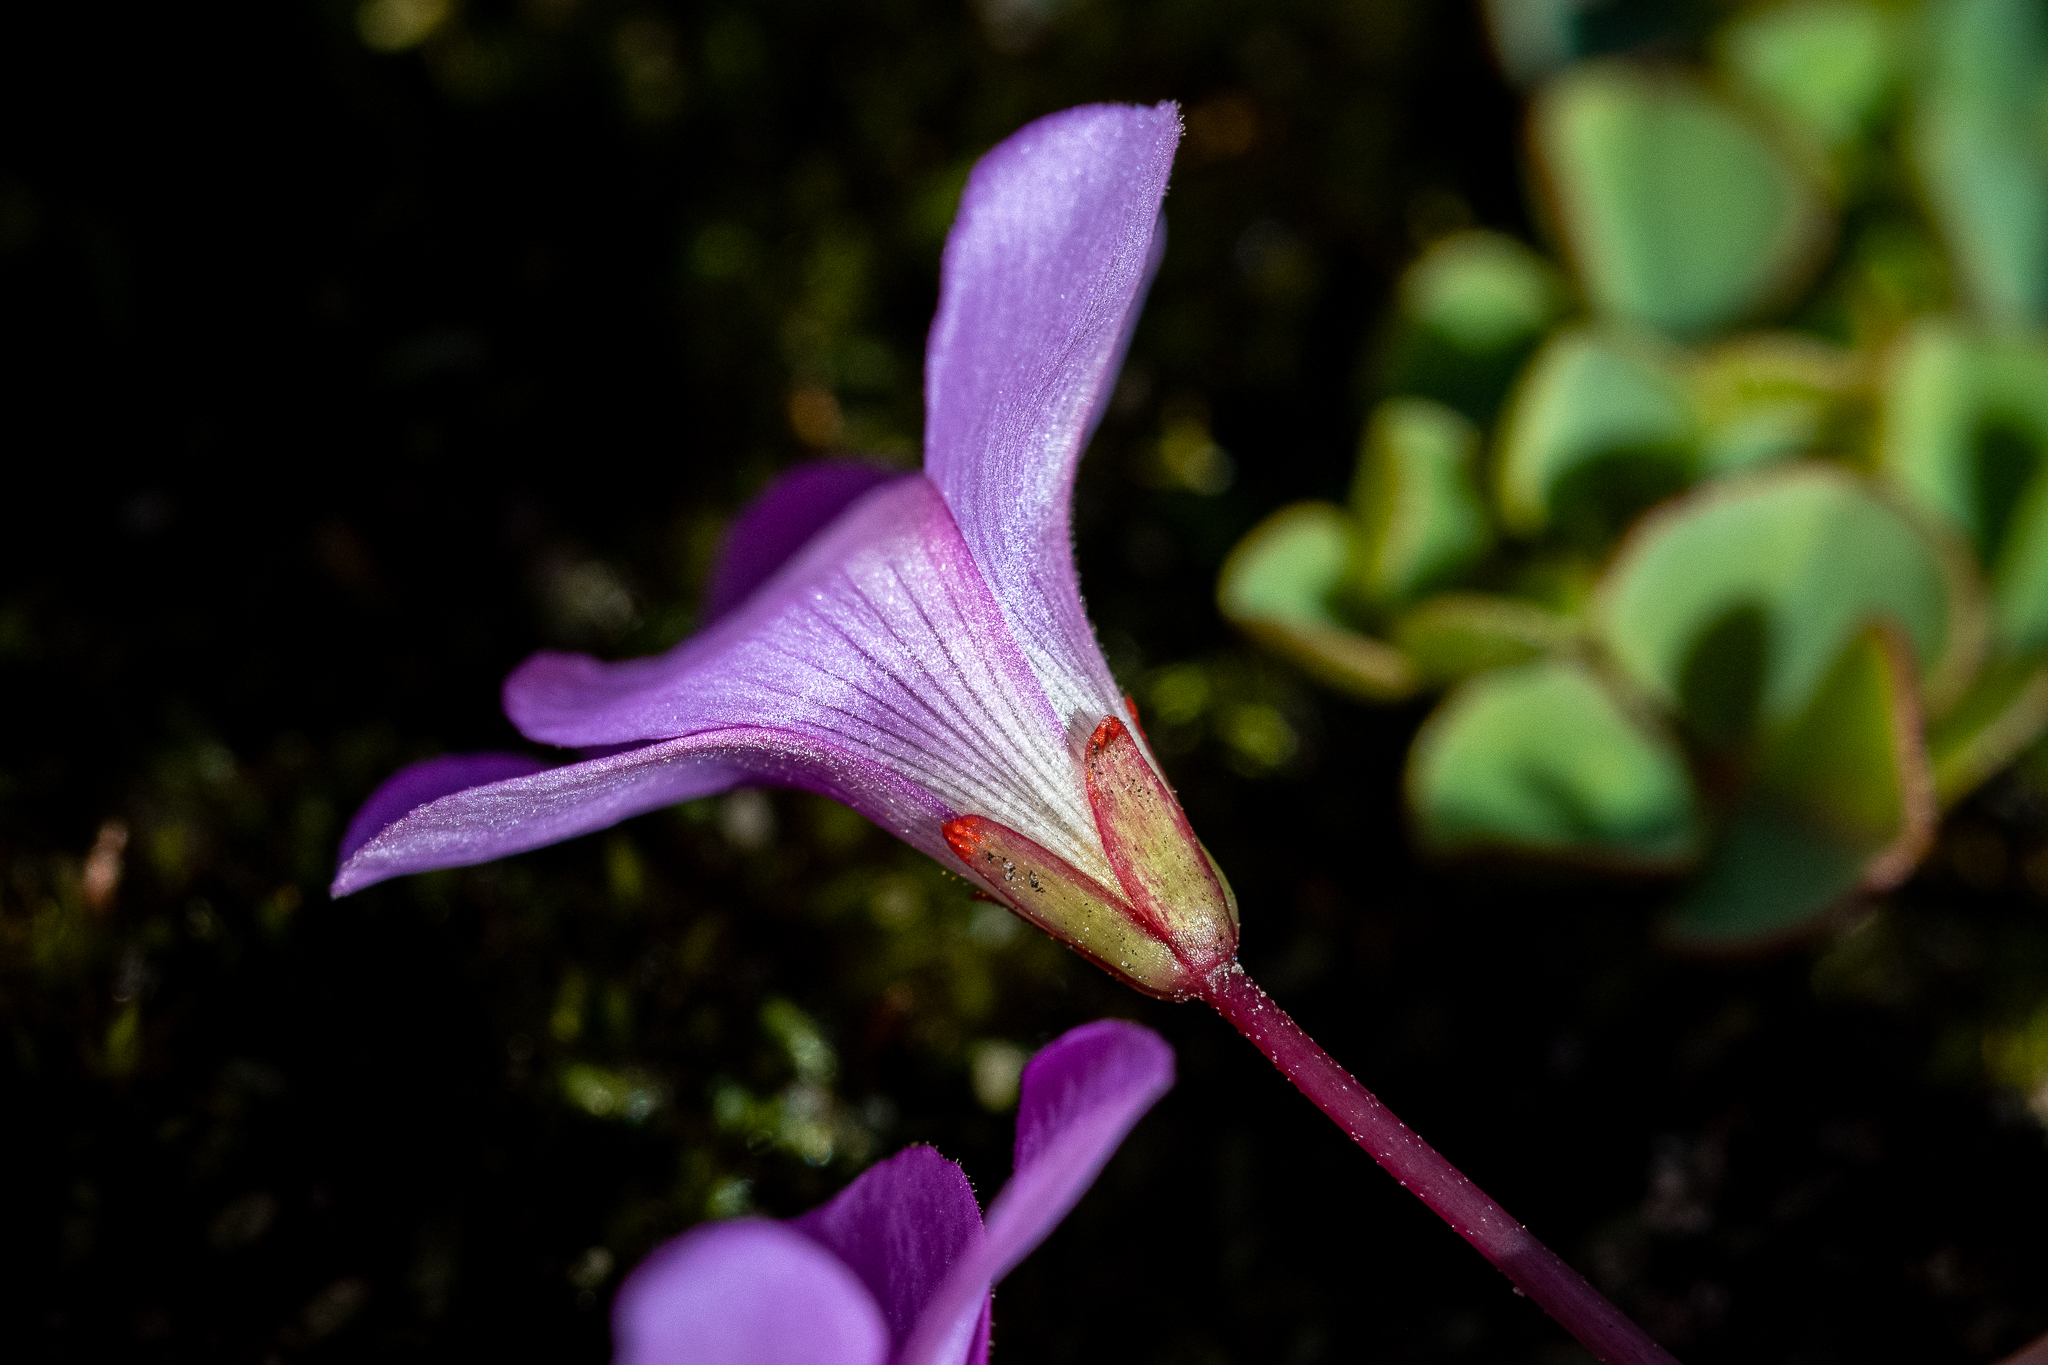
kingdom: Plantae
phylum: Tracheophyta
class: Magnoliopsida
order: Oxalidales
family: Oxalidaceae
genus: Oxalis
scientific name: Oxalis commutata
